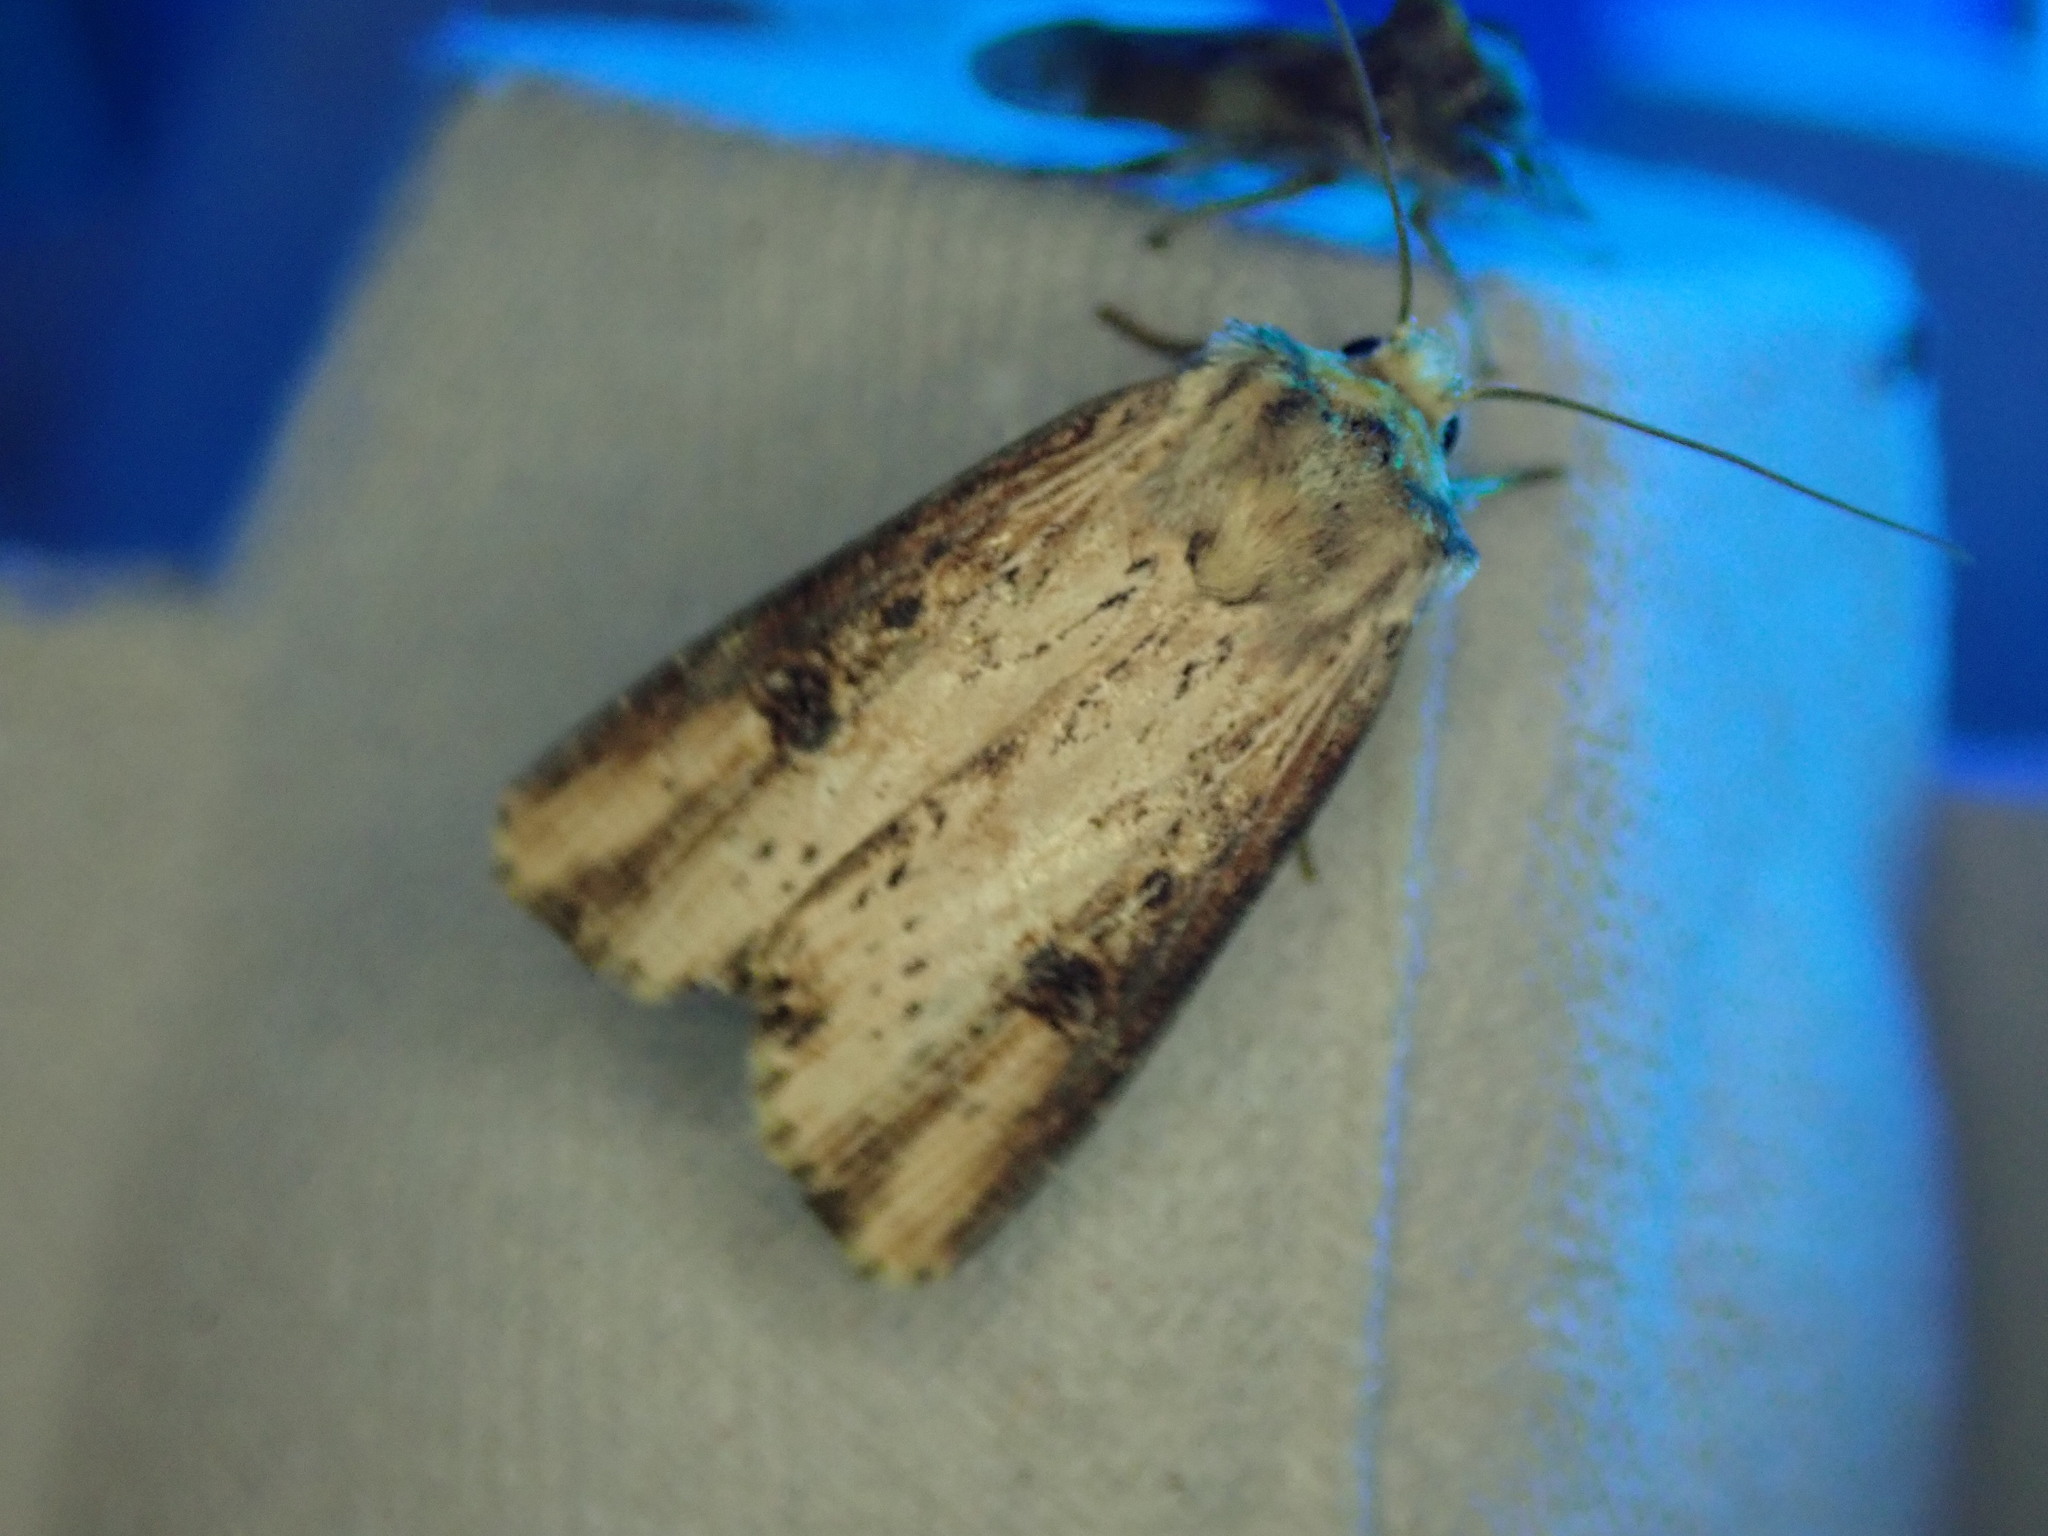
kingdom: Animalia
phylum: Arthropoda
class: Insecta
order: Lepidoptera
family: Noctuidae
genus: Axylia
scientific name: Axylia putris
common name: Flame
